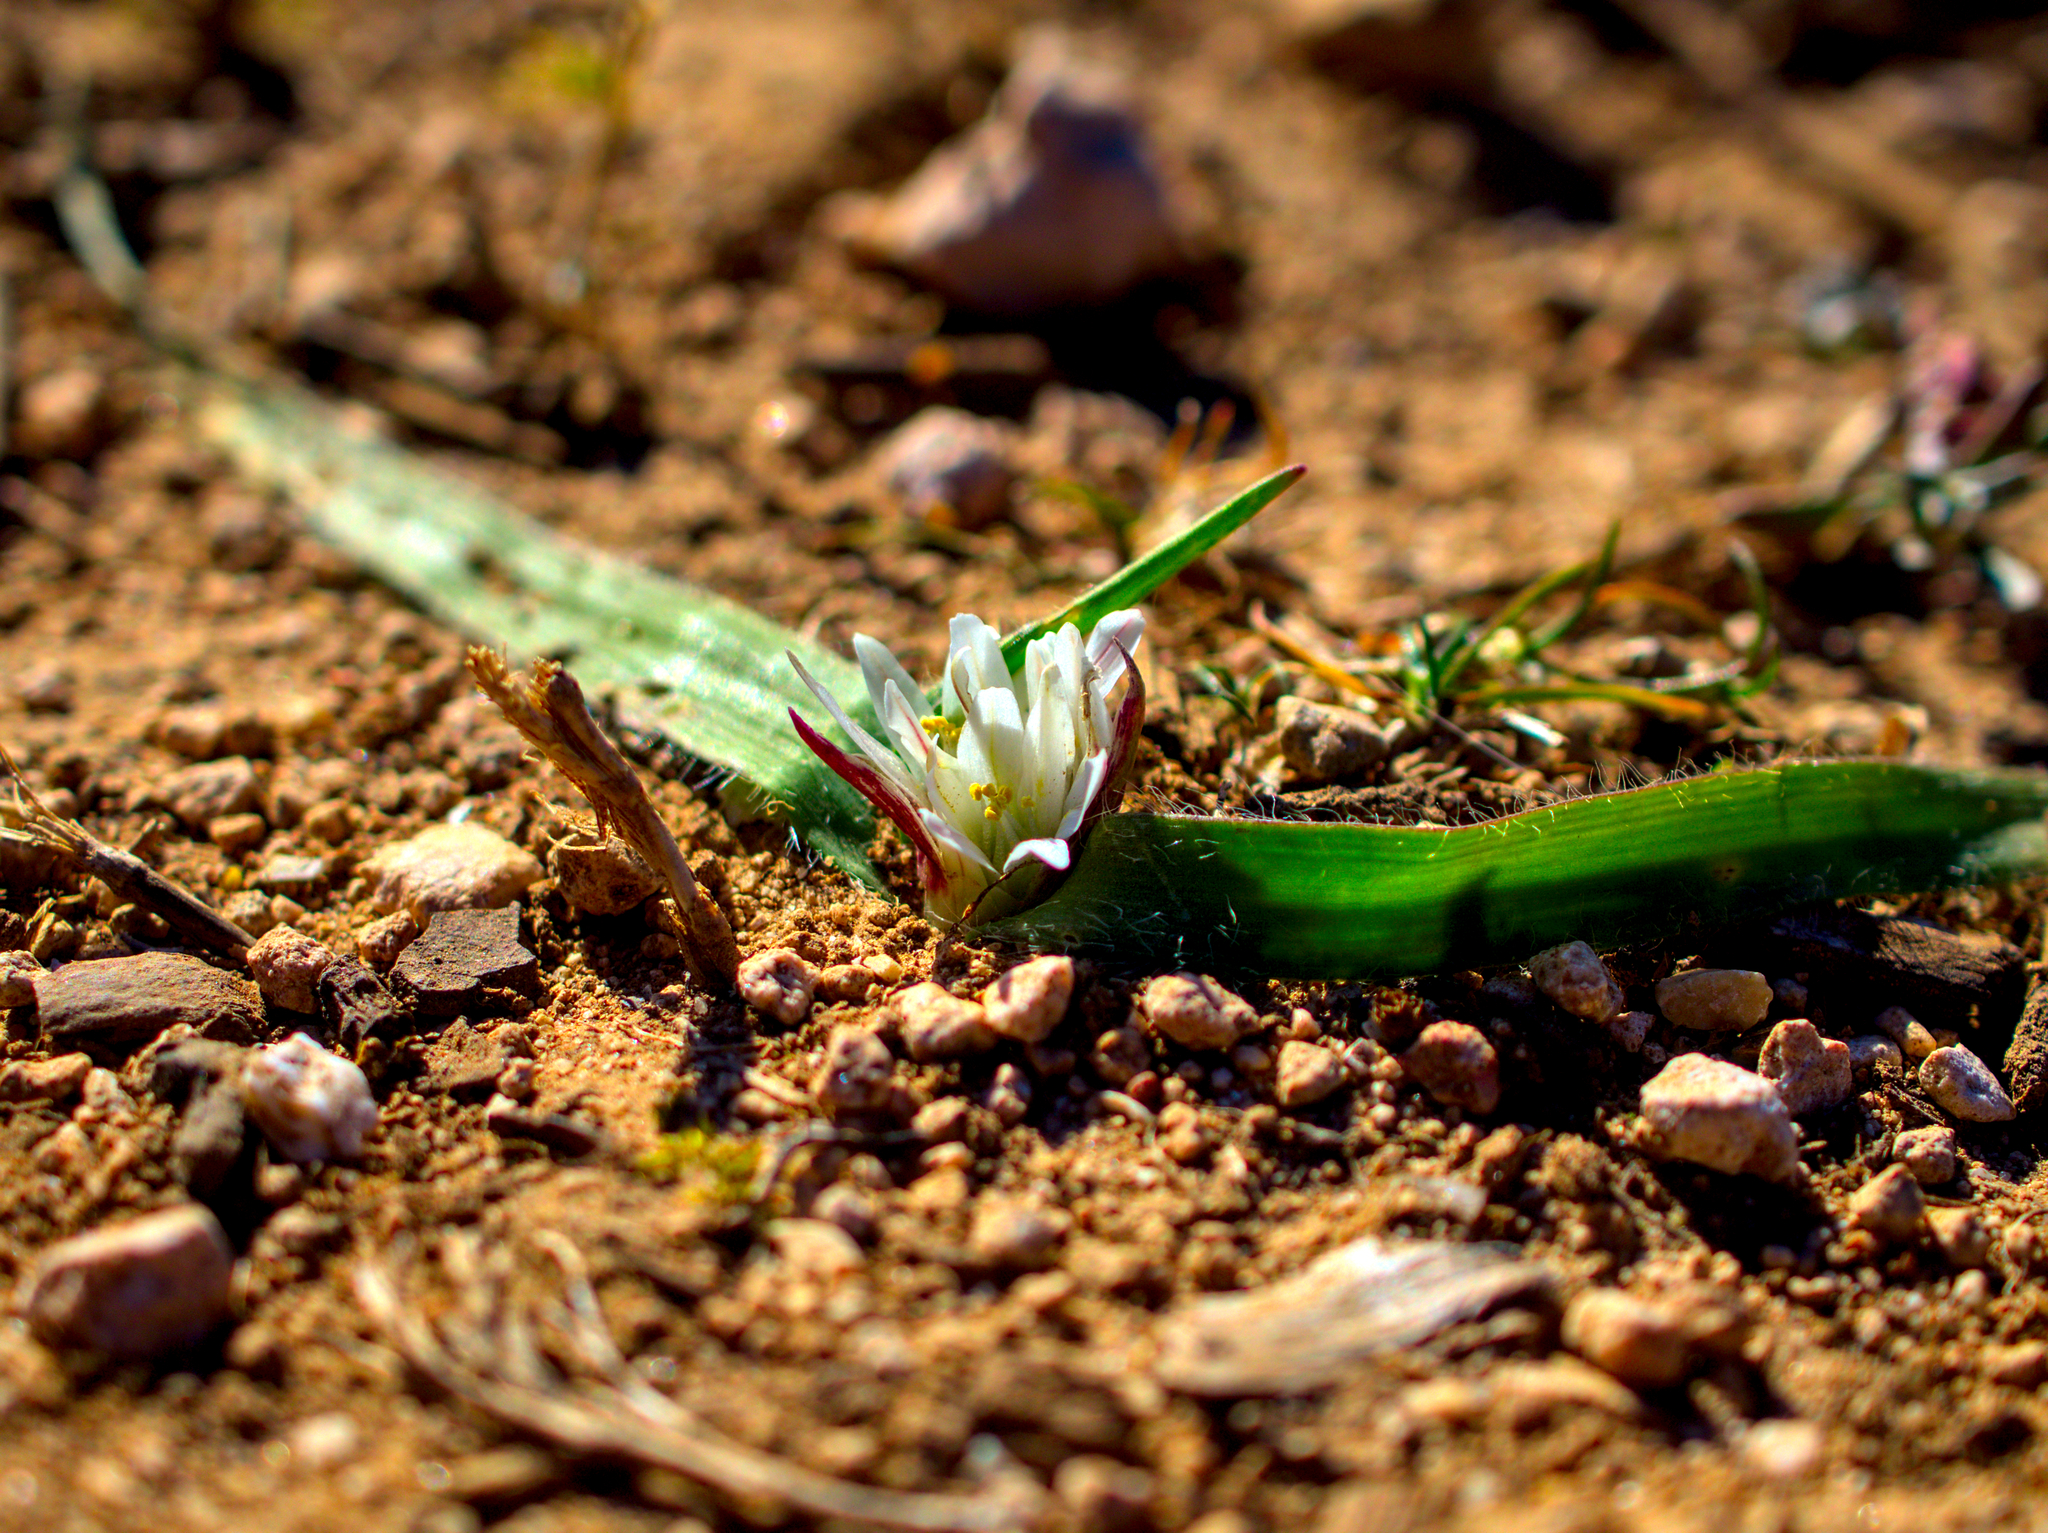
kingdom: Plantae
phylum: Tracheophyta
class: Liliopsida
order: Asparagales
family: Amaryllidaceae
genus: Allium
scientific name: Allium chamaemoly
